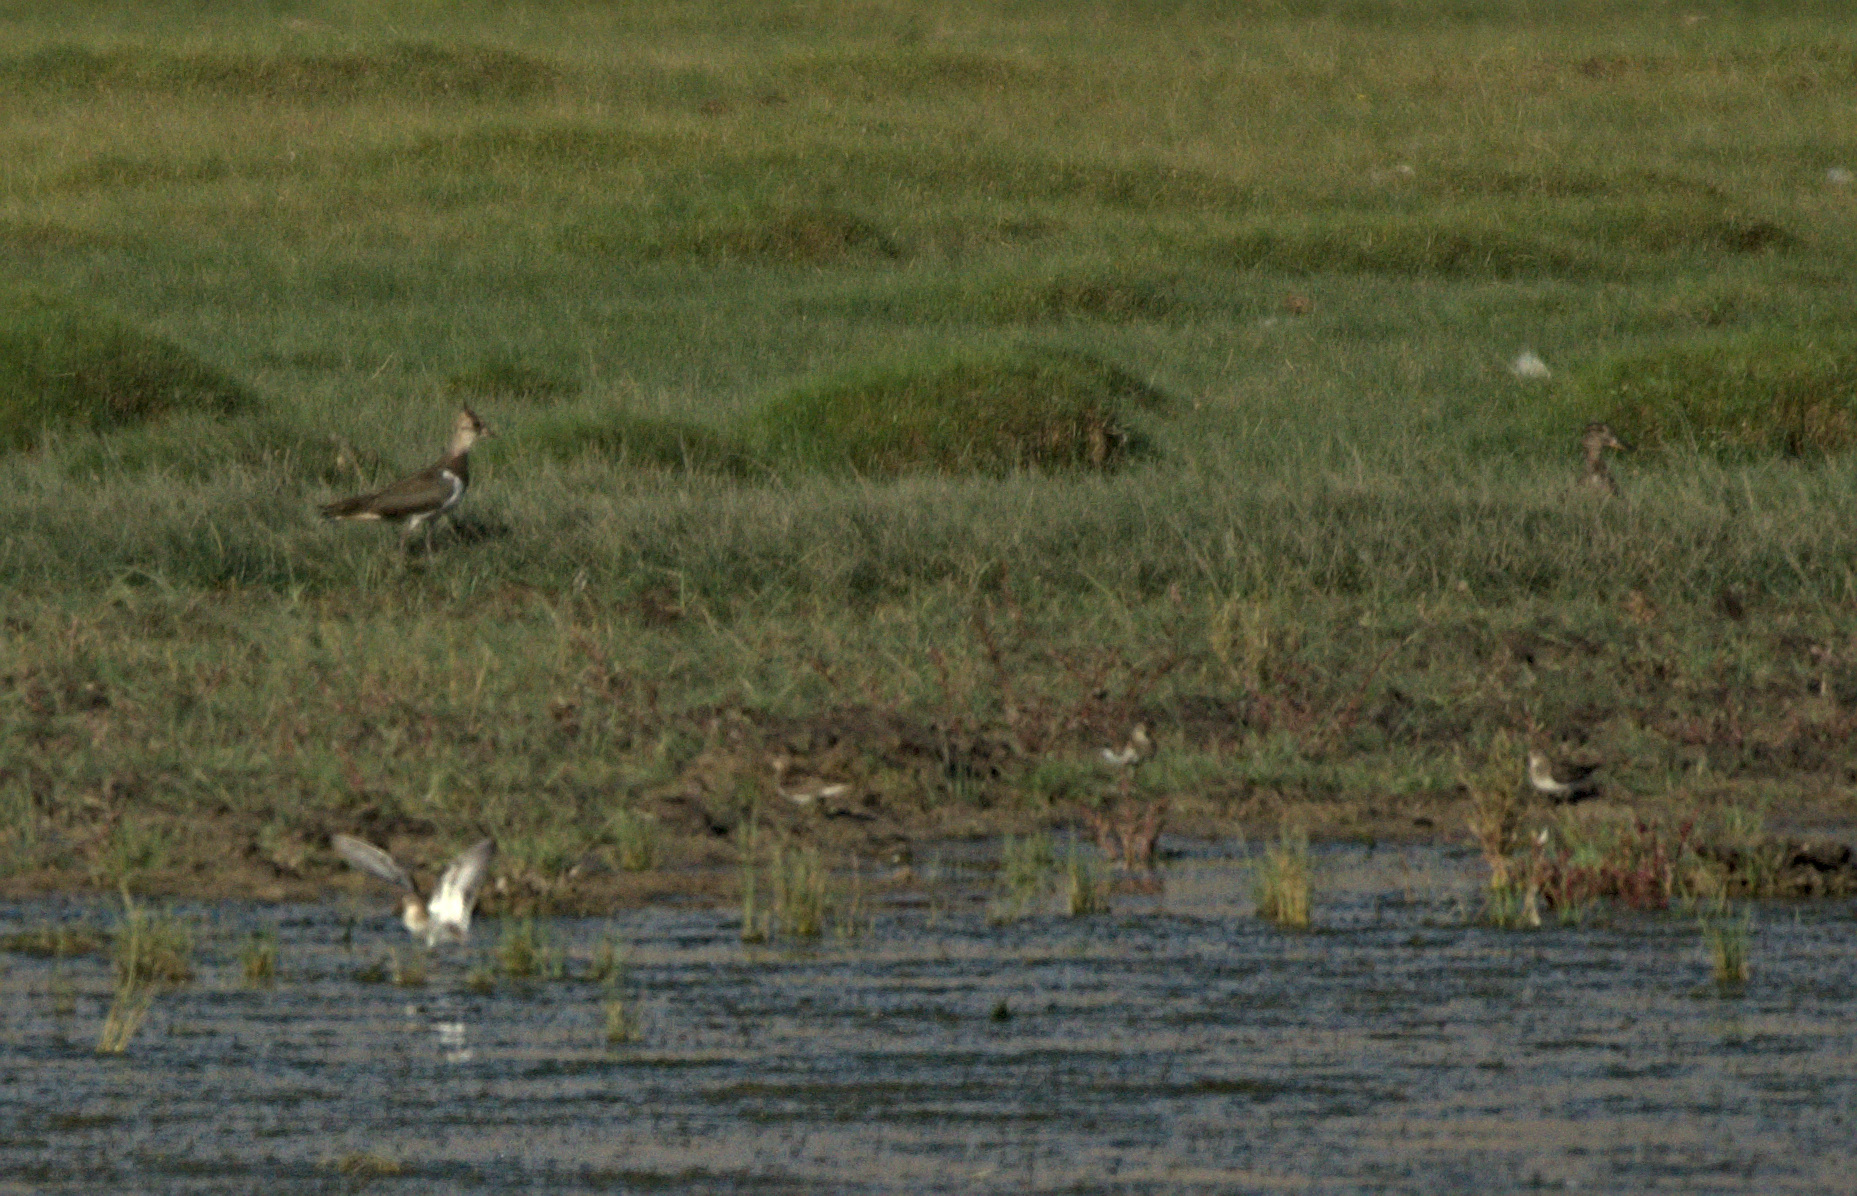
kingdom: Animalia
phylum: Chordata
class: Aves
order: Charadriiformes
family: Charadriidae
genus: Vanellus
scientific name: Vanellus vanellus
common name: Northern lapwing
